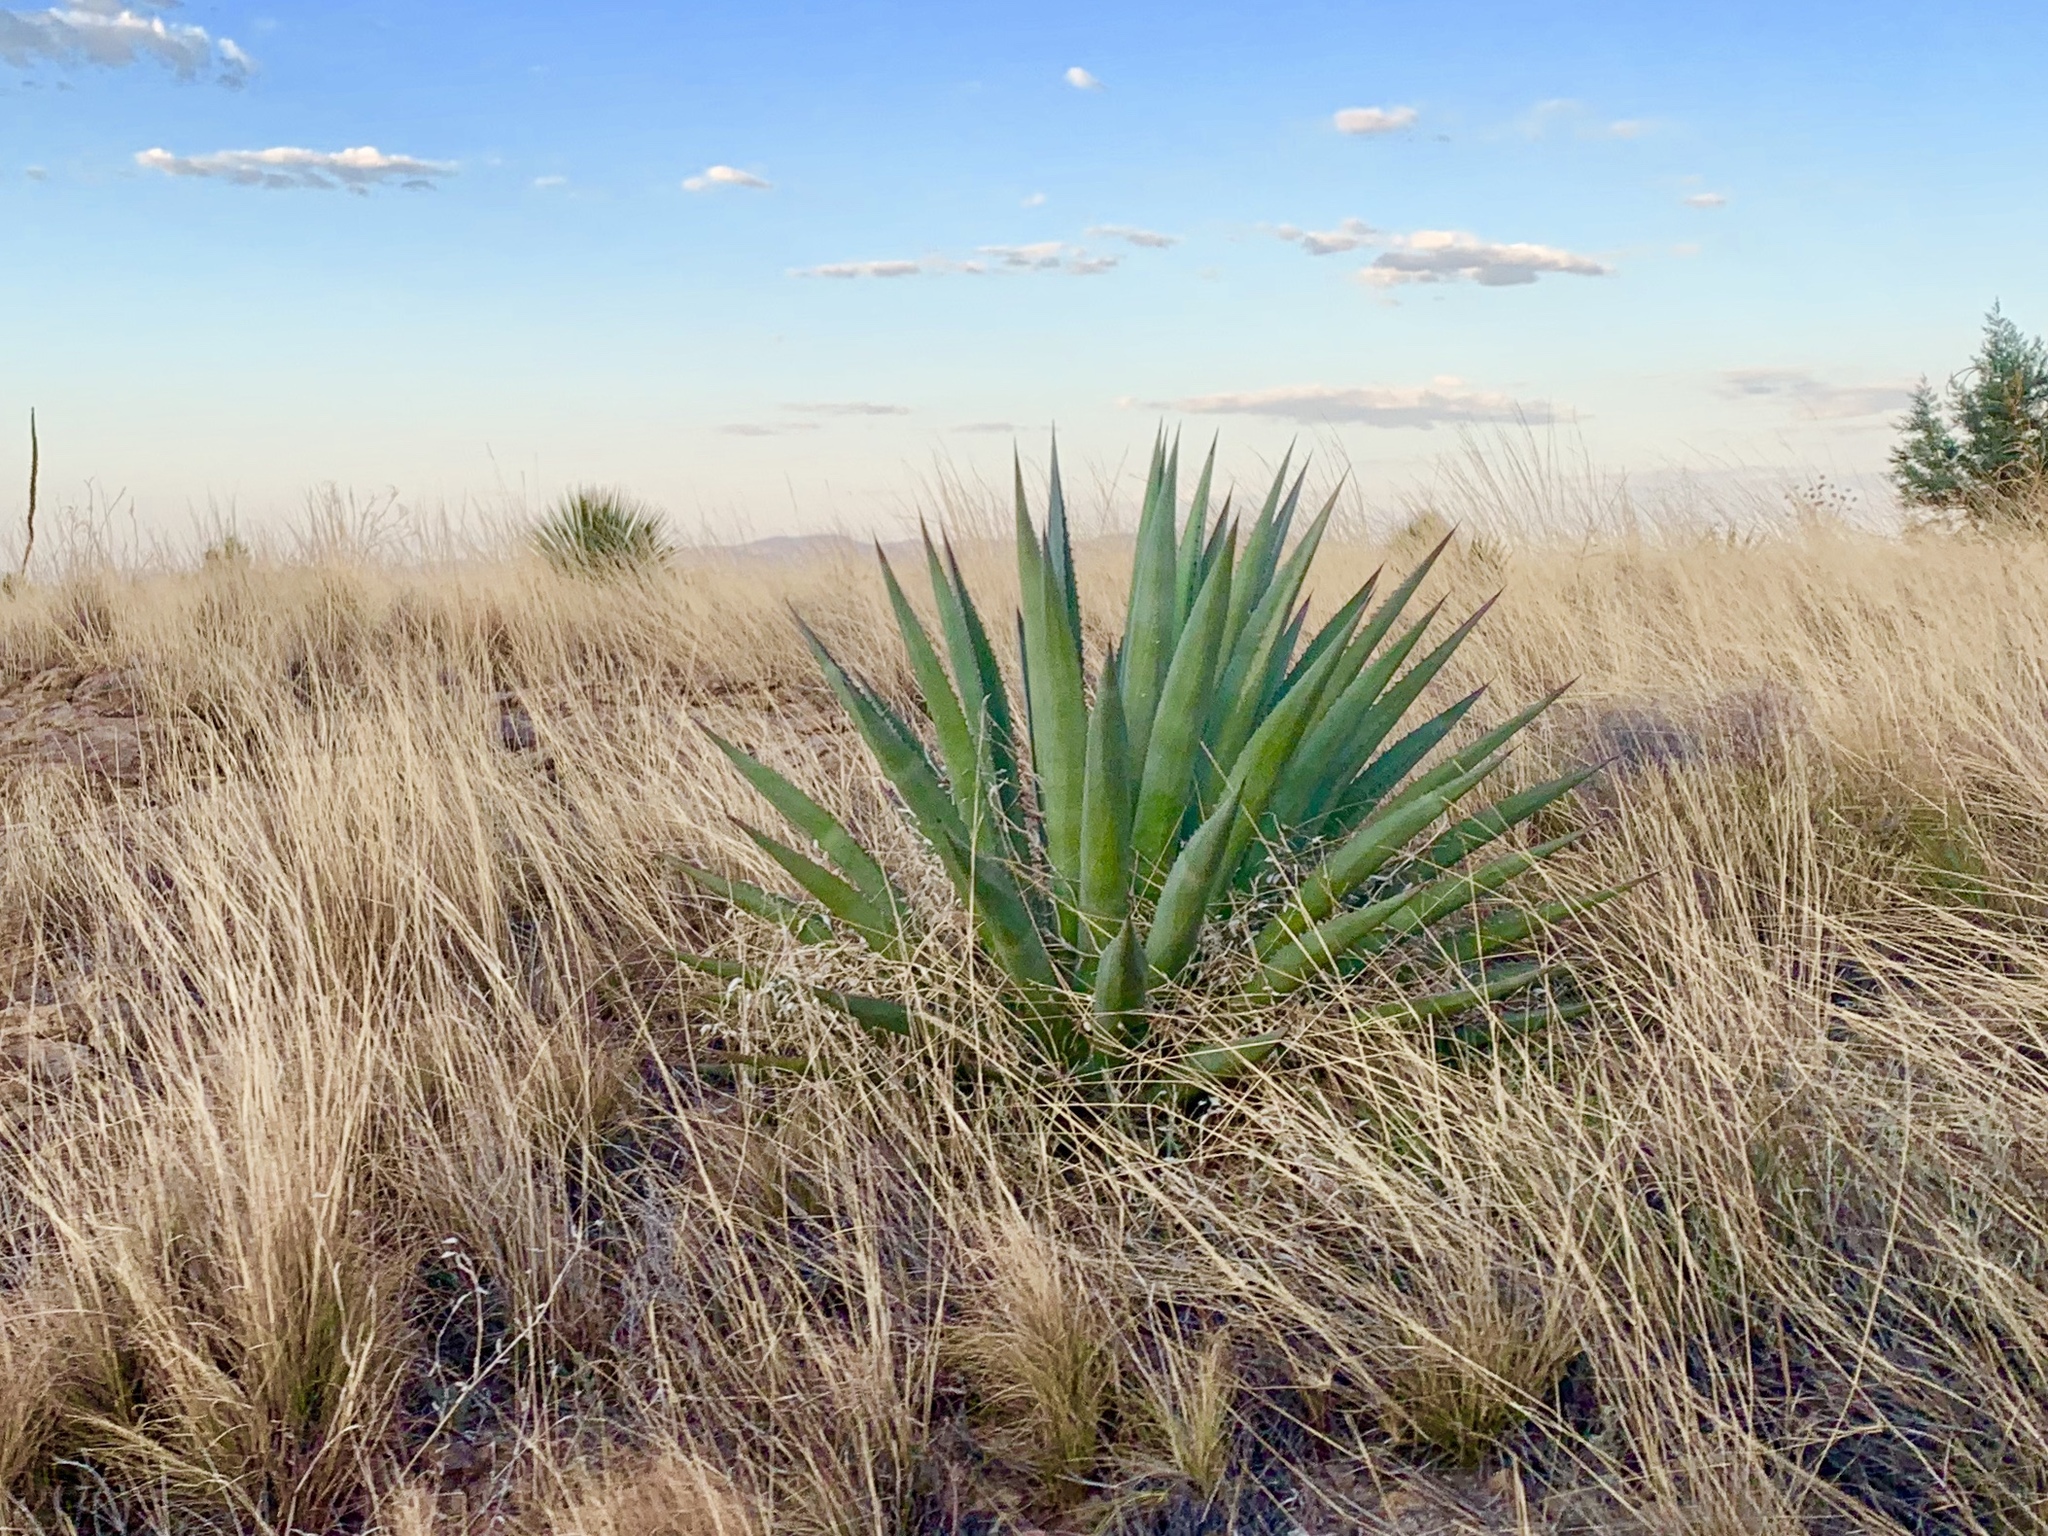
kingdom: Plantae
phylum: Tracheophyta
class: Liliopsida
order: Asparagales
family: Asparagaceae
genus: Agave
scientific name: Agave palmeri
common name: Palmer agave
